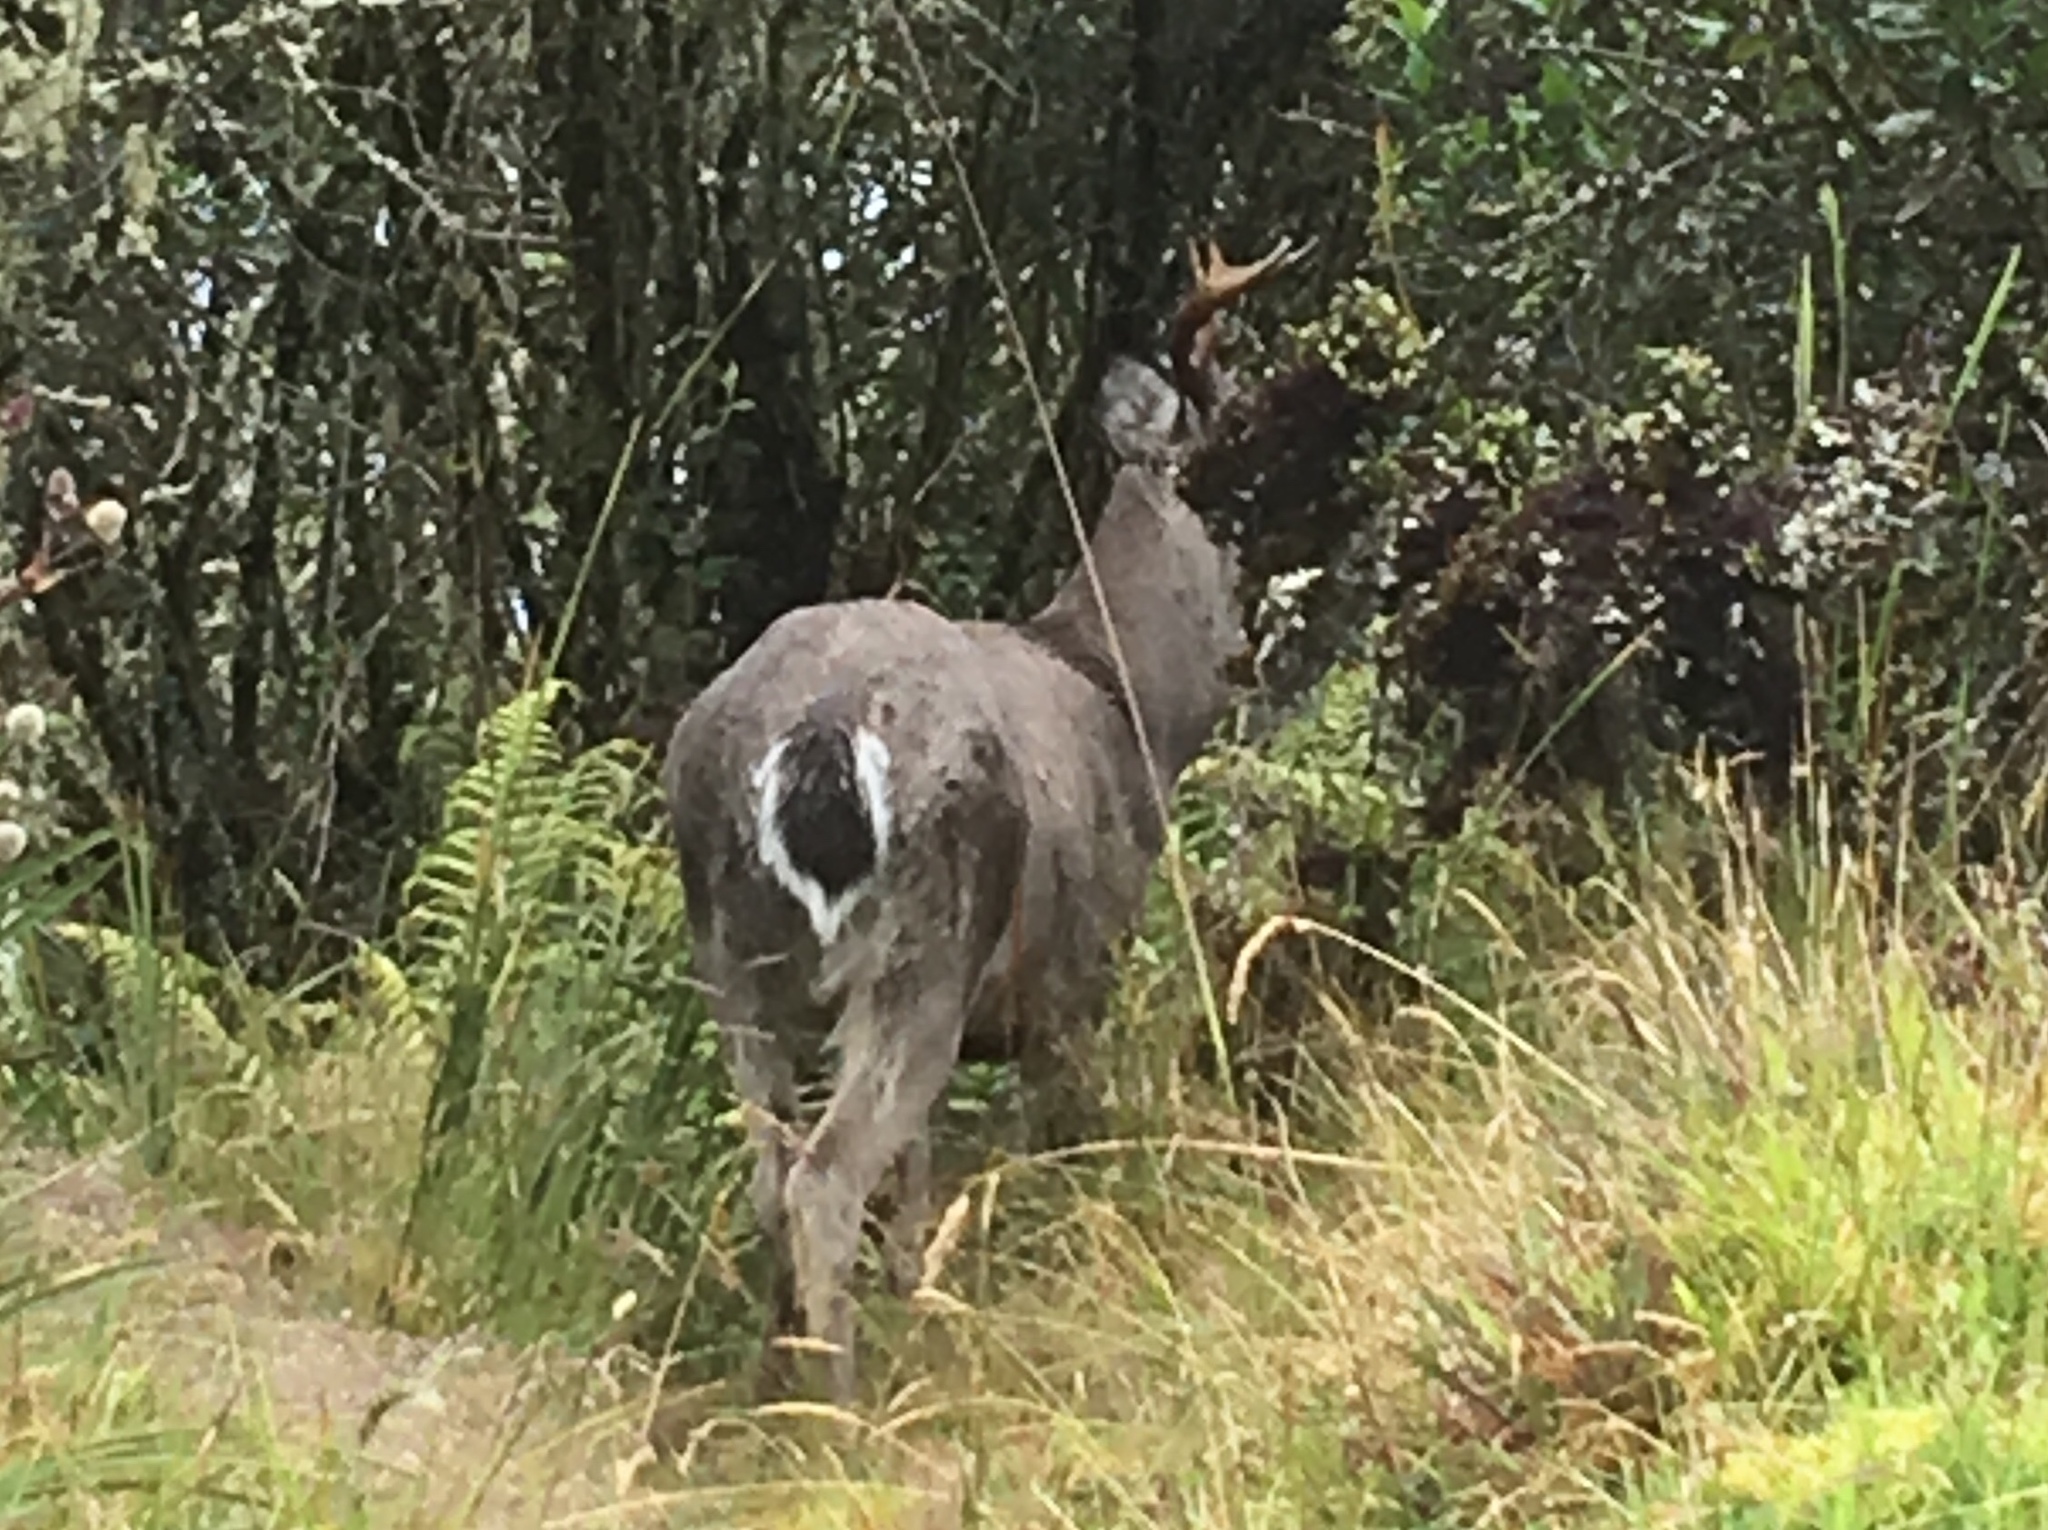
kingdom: Animalia
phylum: Chordata
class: Mammalia
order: Artiodactyla
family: Cervidae
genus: Odocoileus
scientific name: Odocoileus virginianus
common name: White-tailed deer
